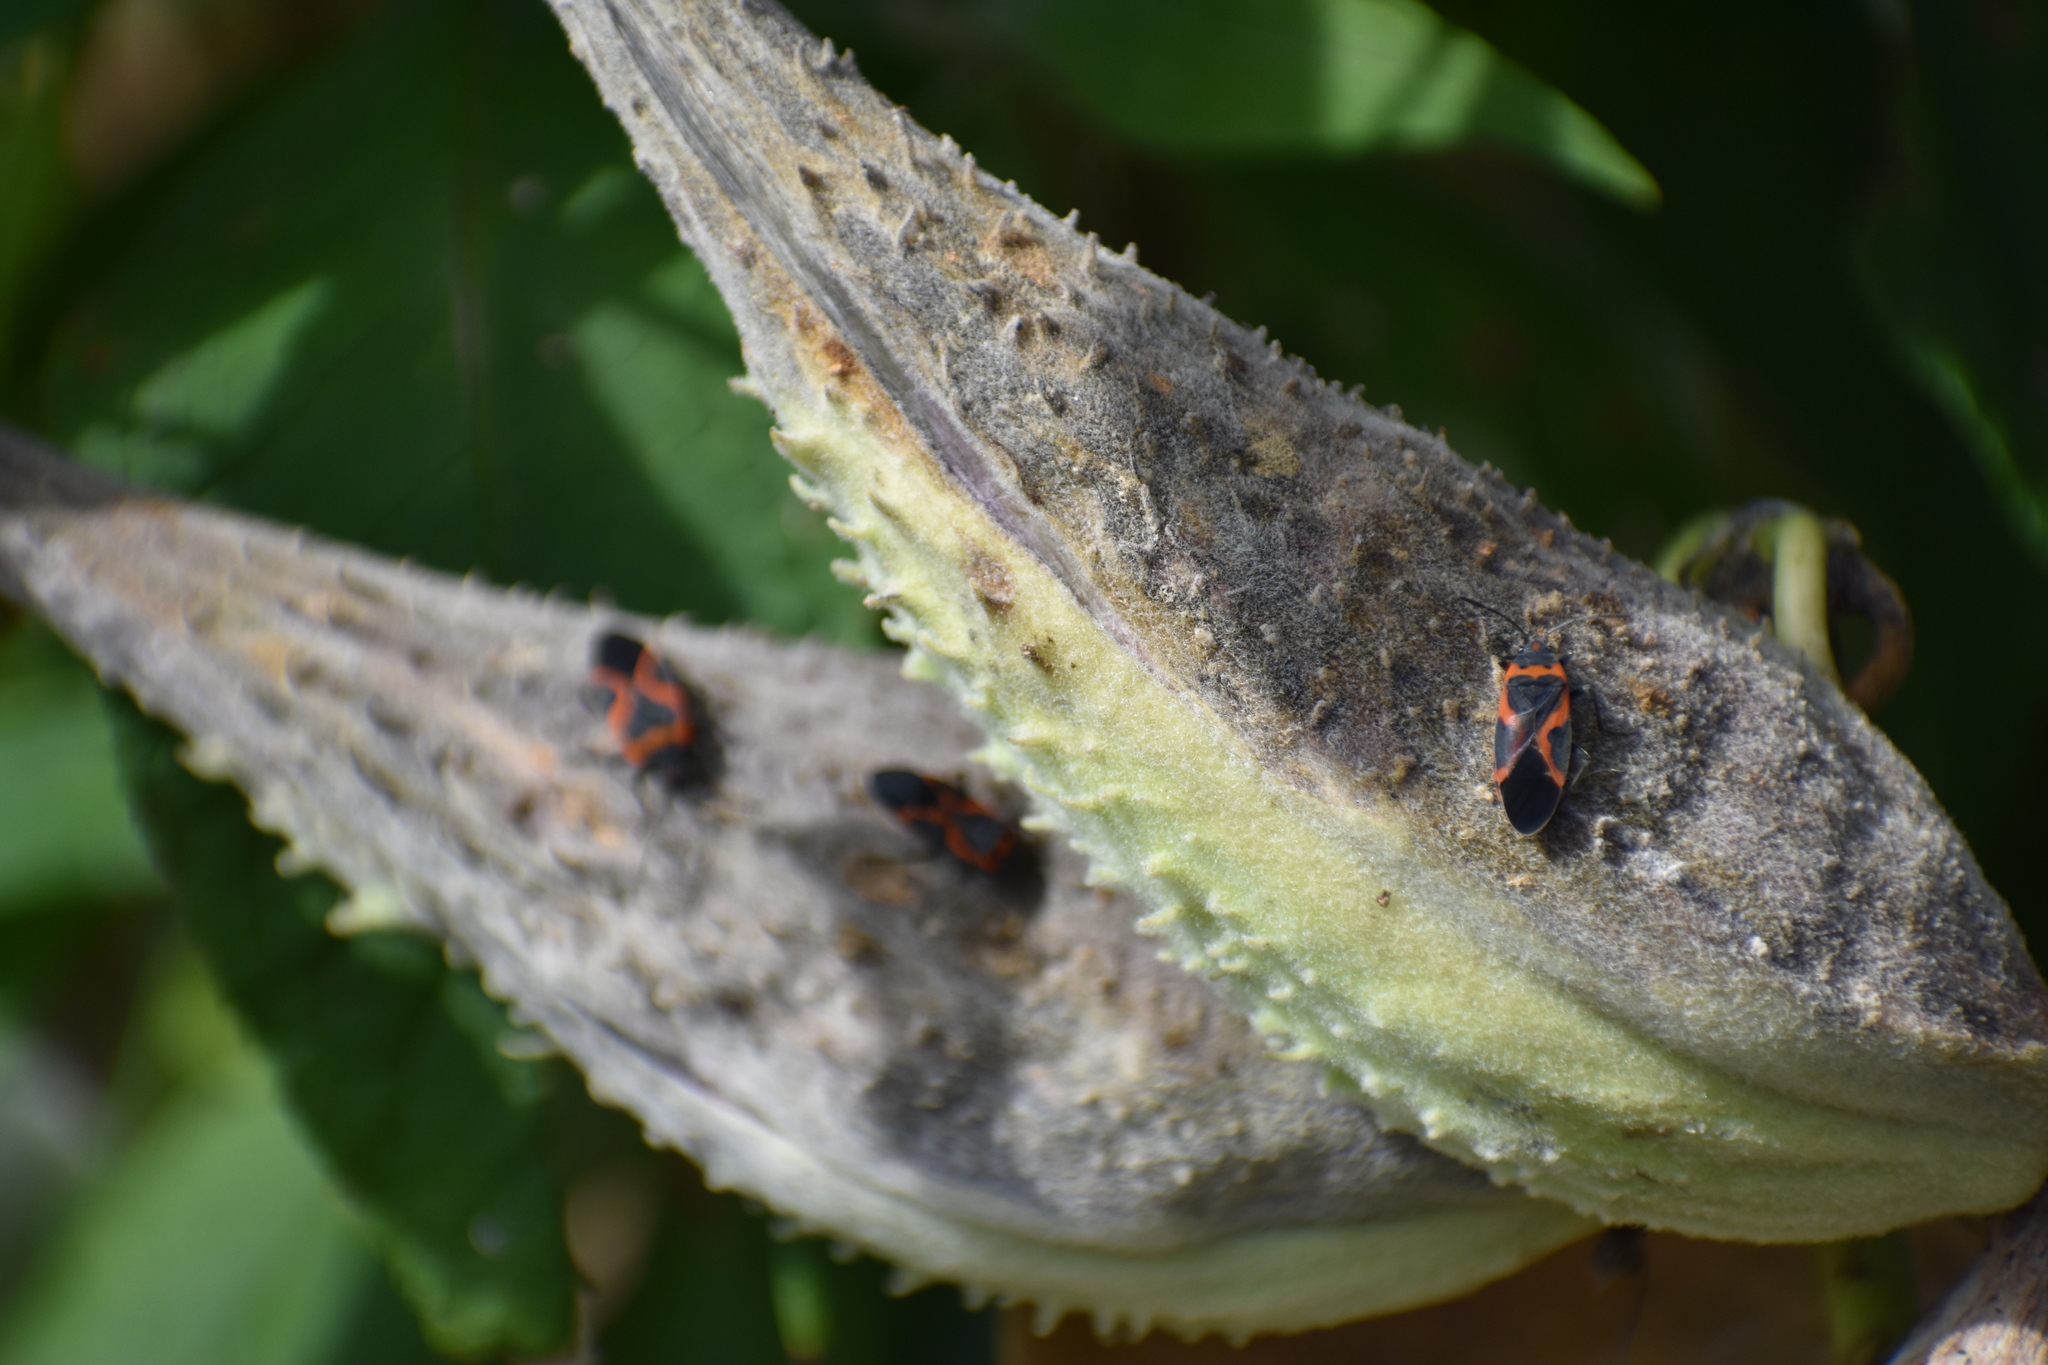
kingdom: Animalia
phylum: Arthropoda
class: Insecta
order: Hemiptera
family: Lygaeidae
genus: Lygaeus
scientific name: Lygaeus kalmii
